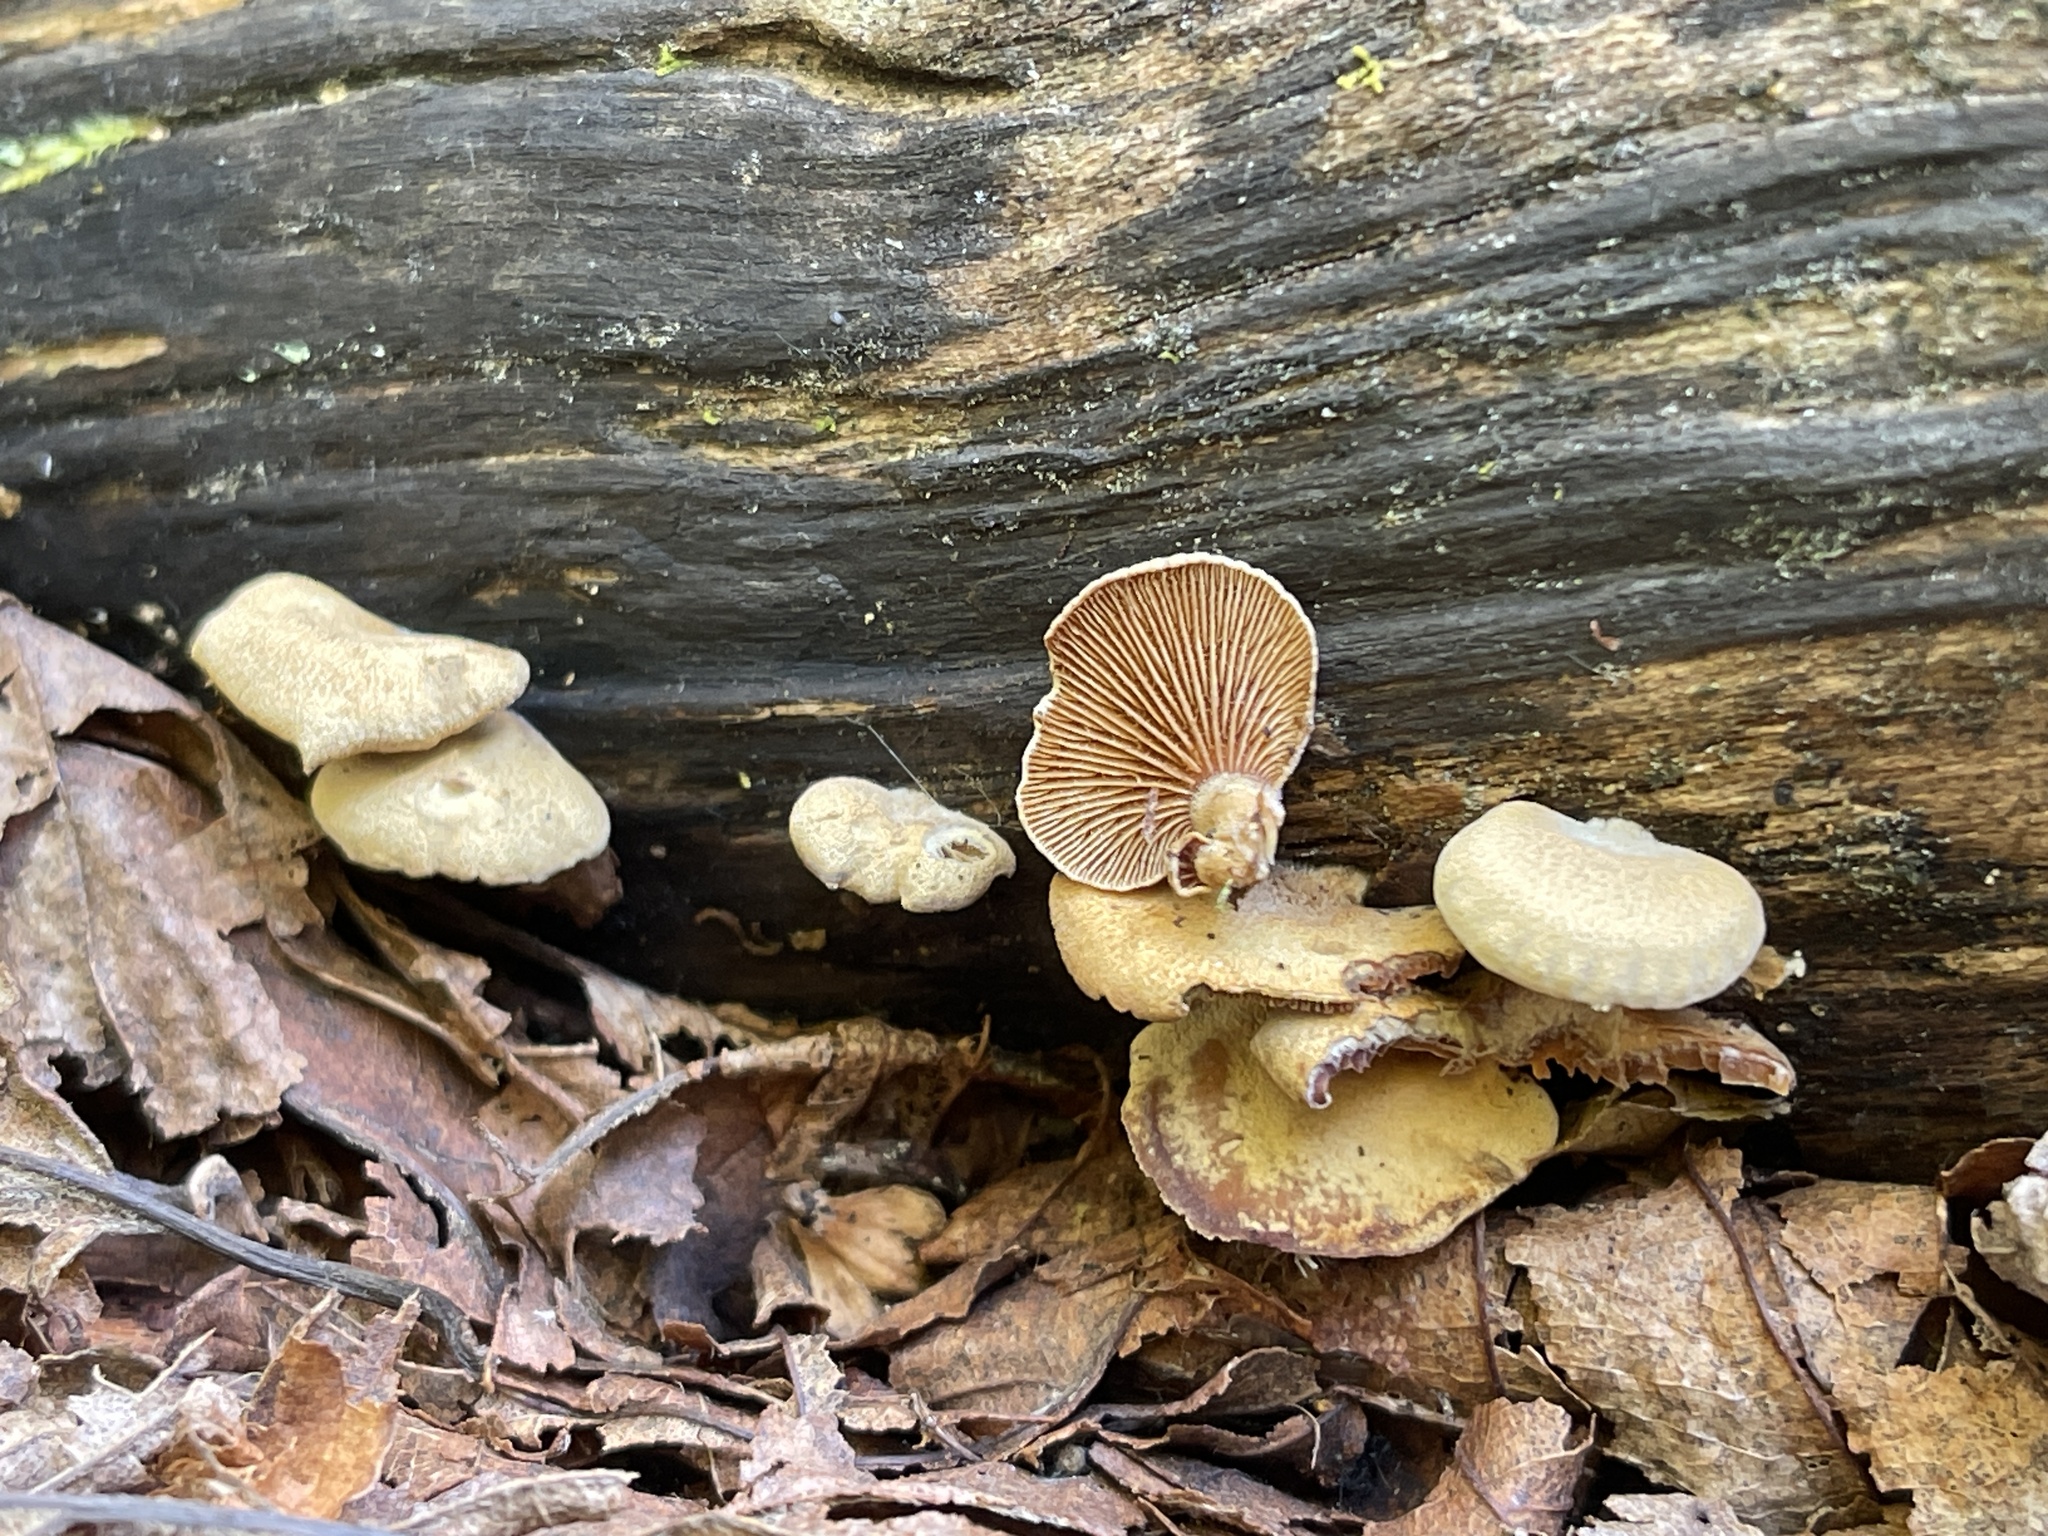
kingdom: Fungi
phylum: Basidiomycota
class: Agaricomycetes
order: Agaricales
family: Mycenaceae
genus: Panellus
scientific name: Panellus stipticus
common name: Bitter oysterling
